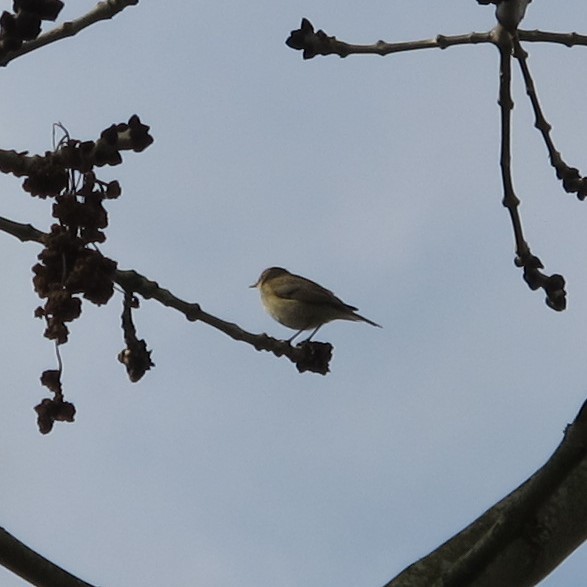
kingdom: Animalia
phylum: Chordata
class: Aves
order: Passeriformes
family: Phylloscopidae
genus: Phylloscopus
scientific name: Phylloscopus collybita
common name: Common chiffchaff
